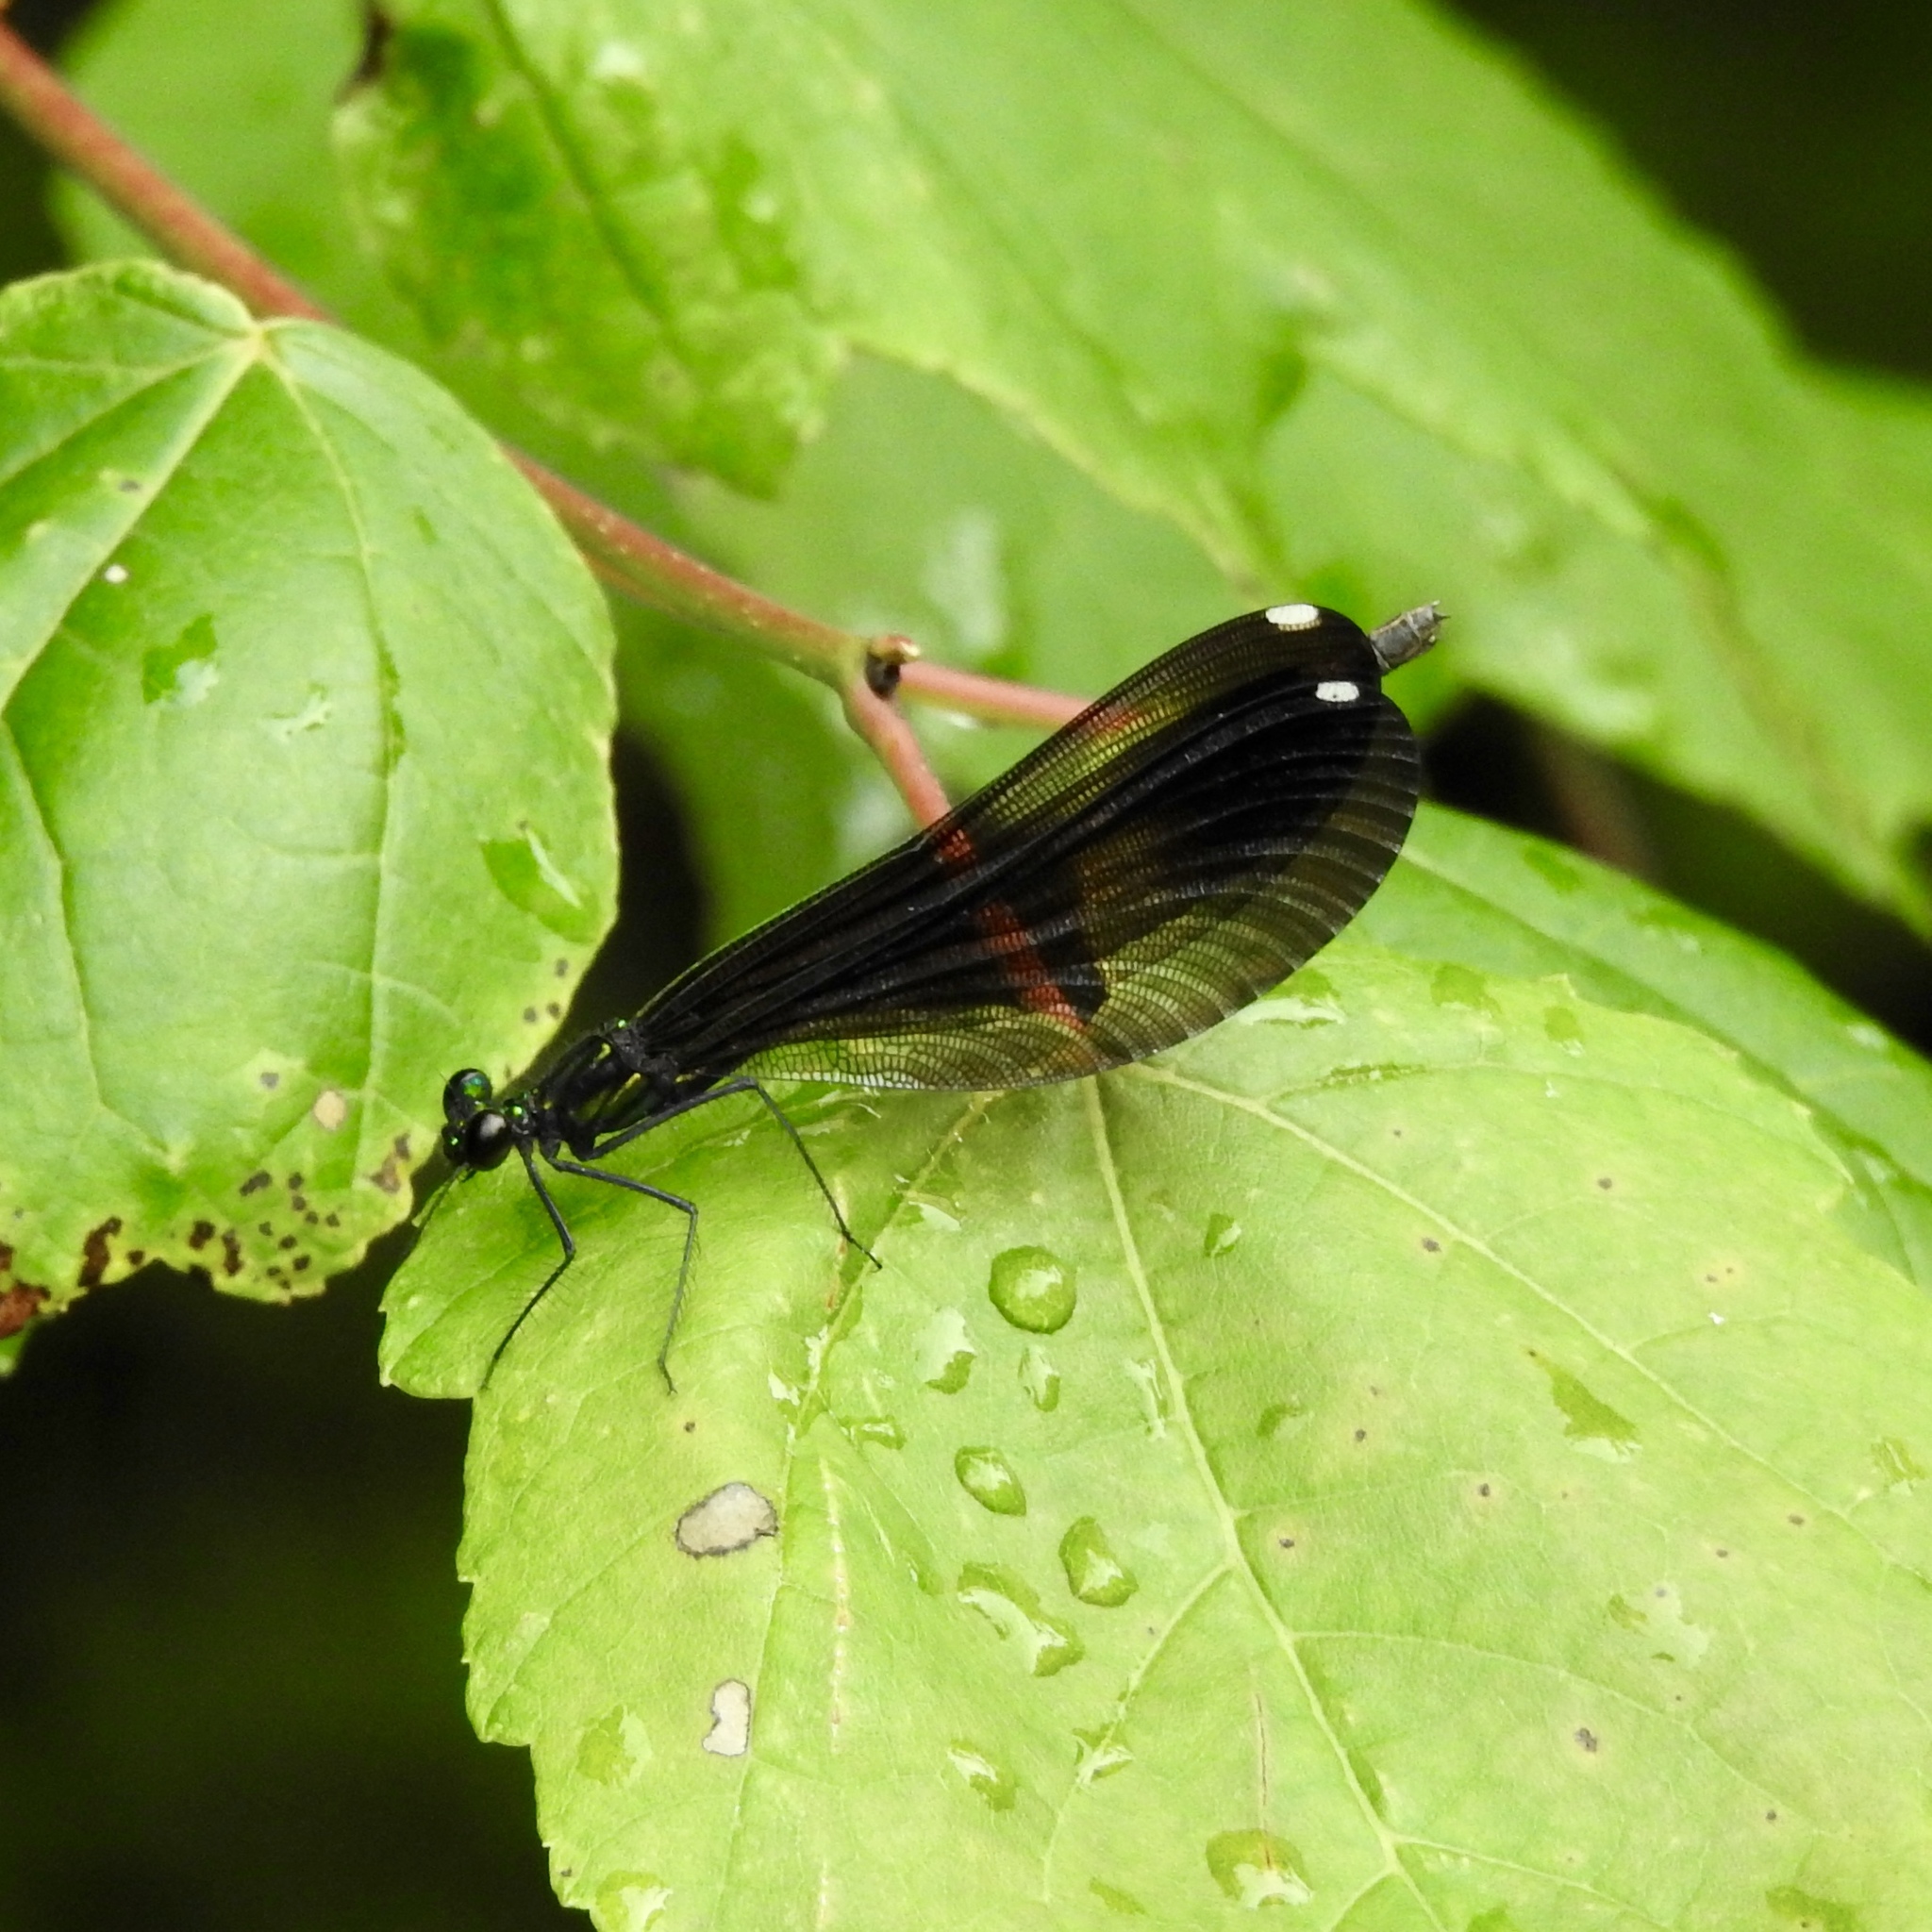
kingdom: Animalia
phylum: Arthropoda
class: Insecta
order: Odonata
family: Calopterygidae
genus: Calopteryx
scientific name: Calopteryx maculata
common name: Ebony jewelwing
